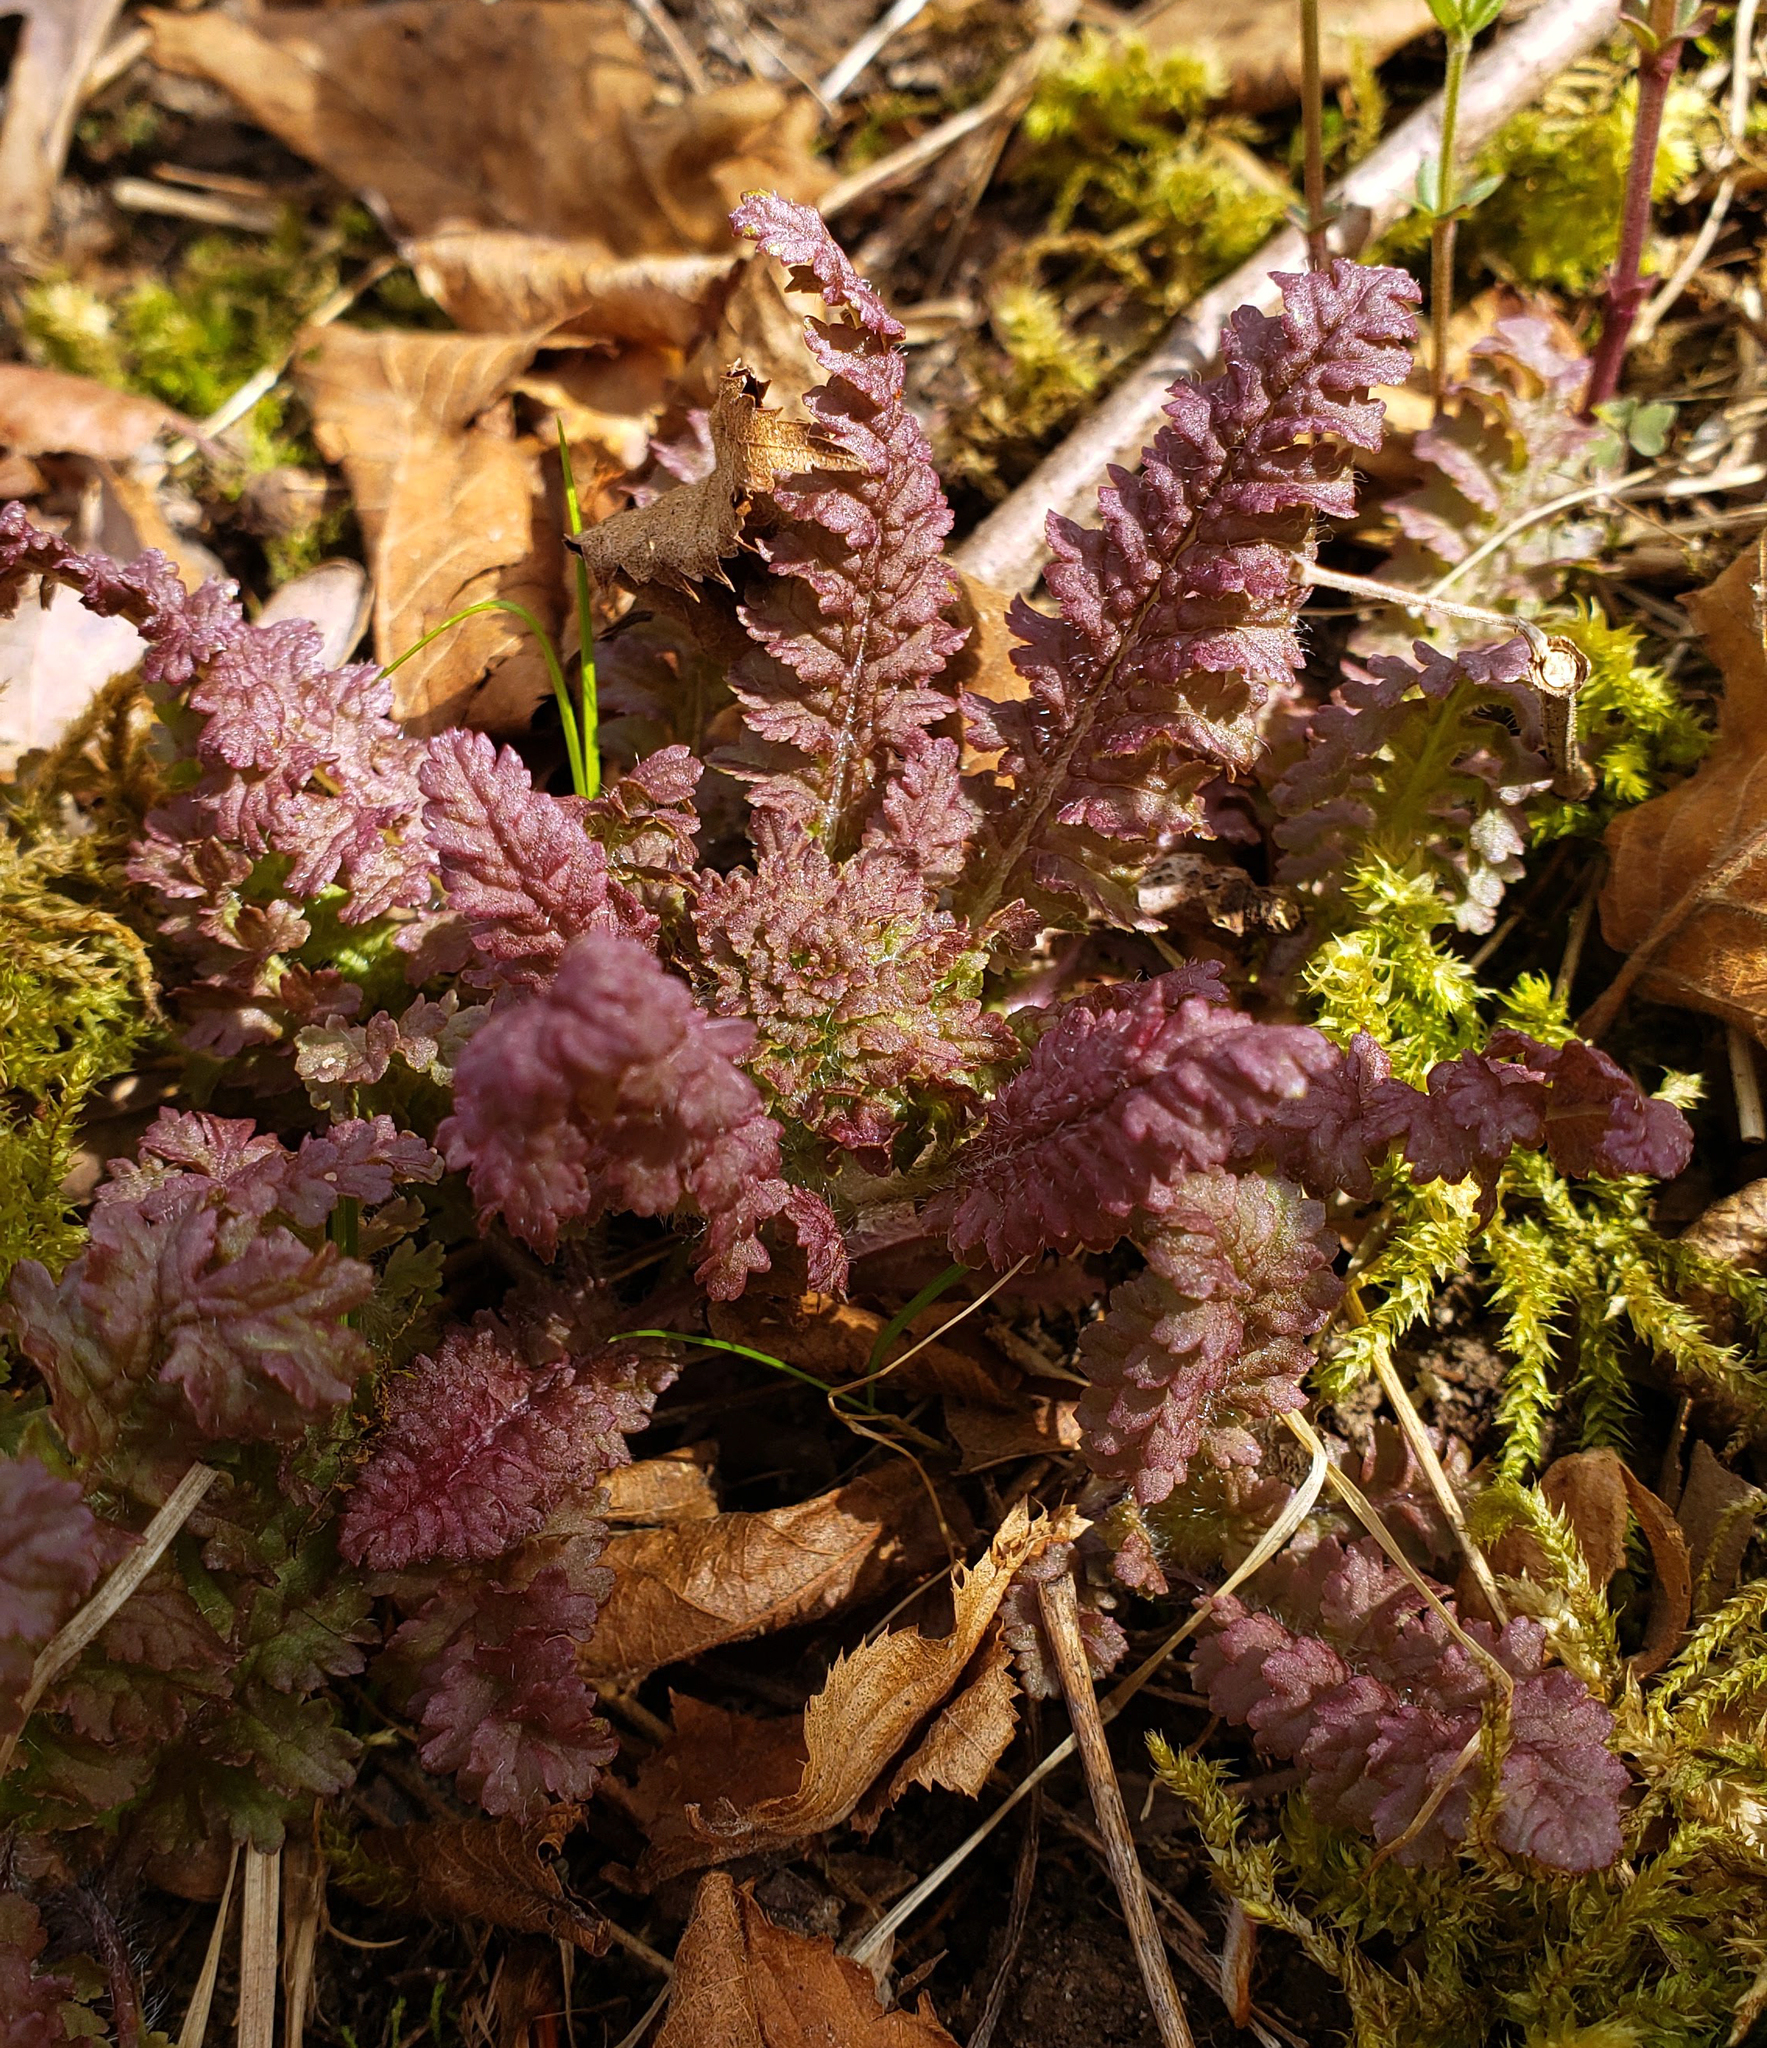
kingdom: Plantae
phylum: Tracheophyta
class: Magnoliopsida
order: Lamiales
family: Orobanchaceae
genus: Pedicularis
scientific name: Pedicularis canadensis
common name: Early lousewort
